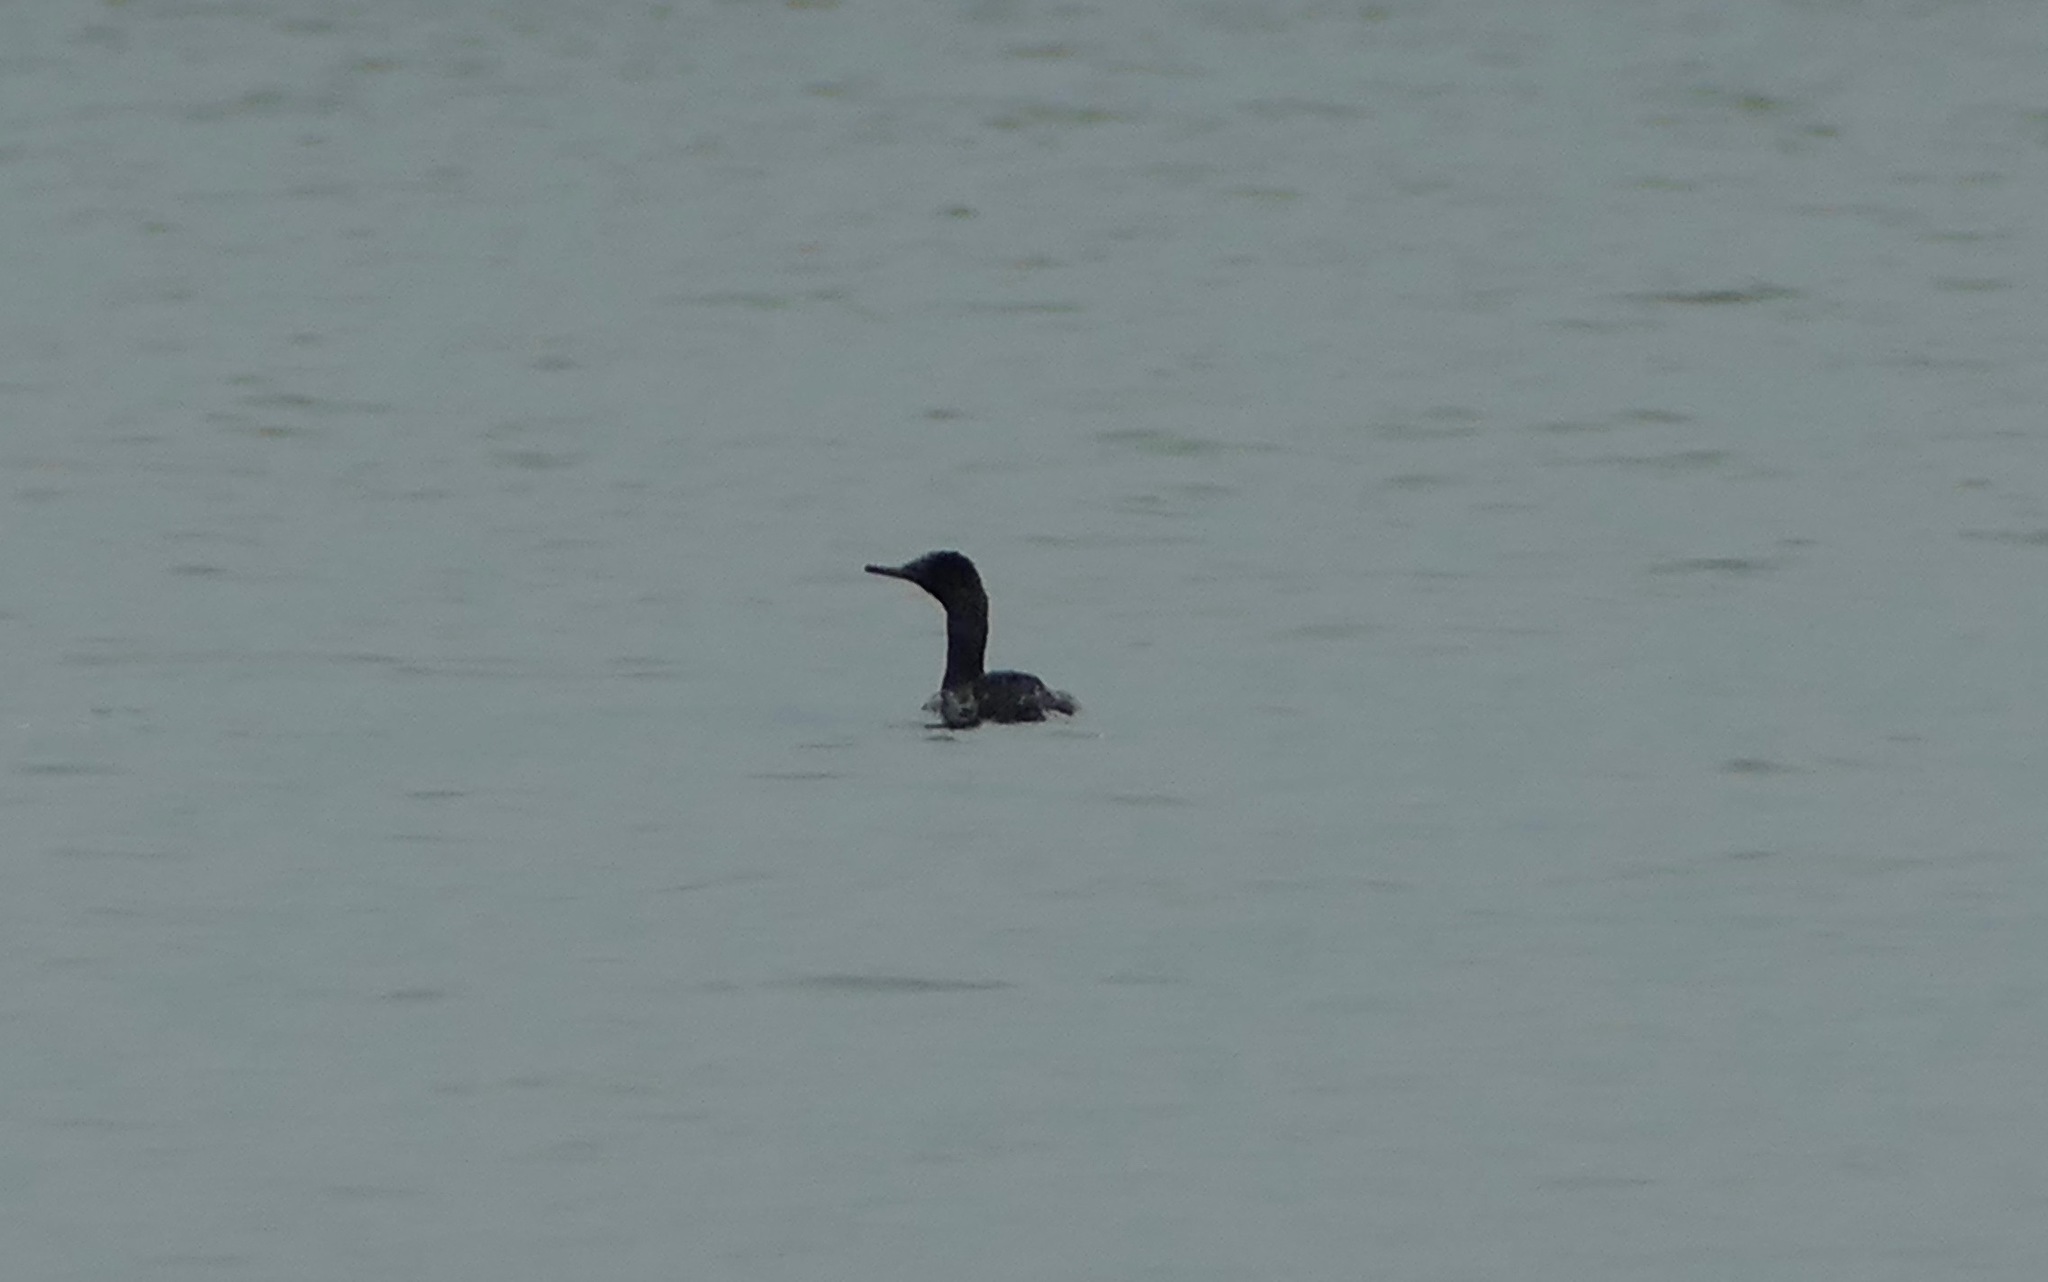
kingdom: Animalia
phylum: Chordata
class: Aves
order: Suliformes
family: Phalacrocoracidae
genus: Phalacrocorax
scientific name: Phalacrocorax pelagicus
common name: Pelagic cormorant
